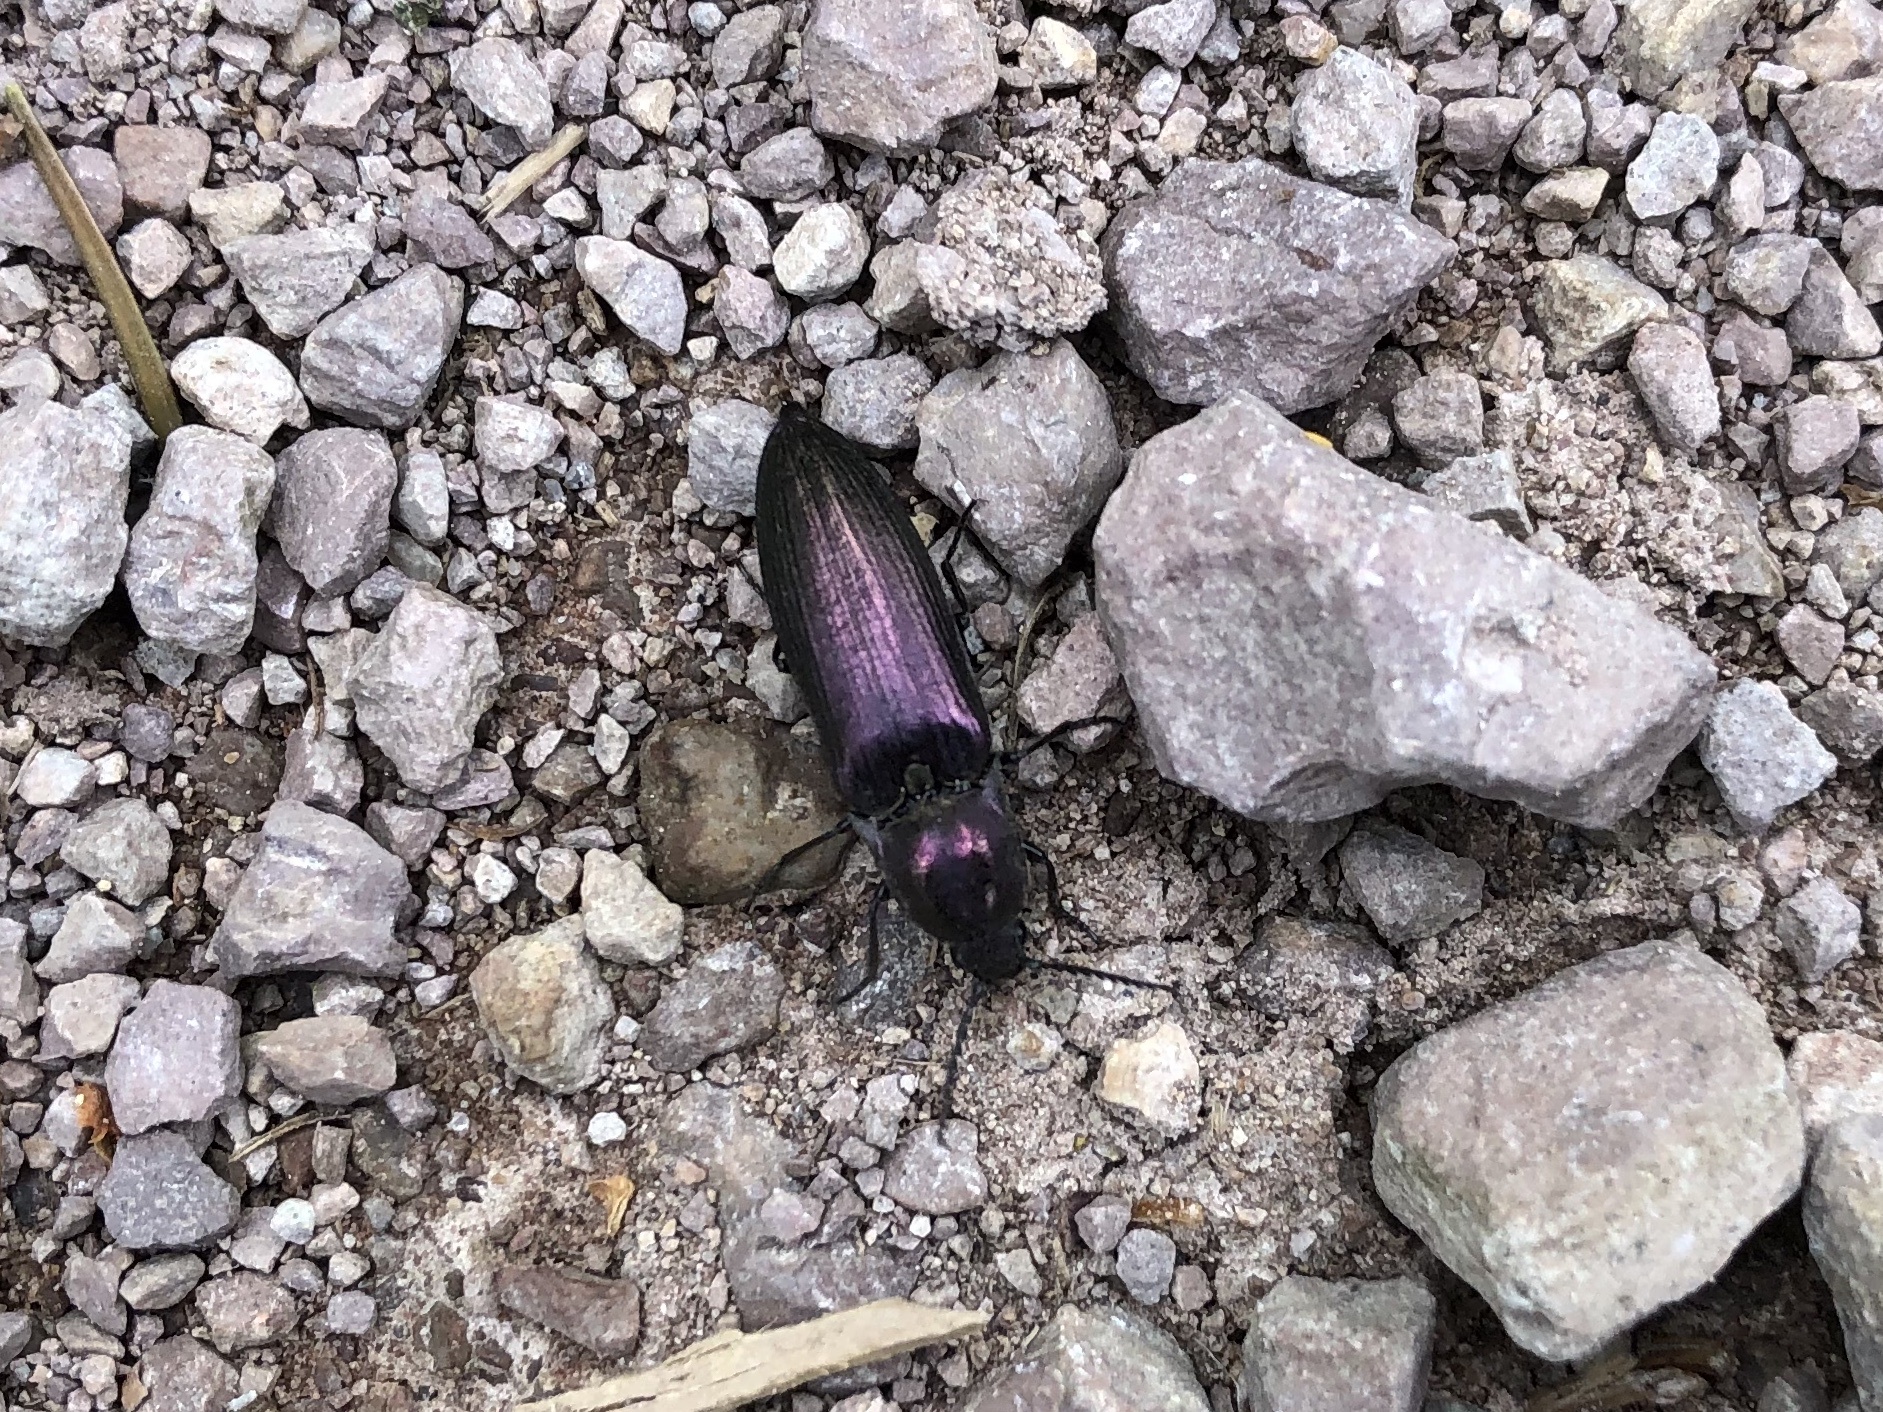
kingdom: Animalia
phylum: Arthropoda
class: Insecta
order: Coleoptera
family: Elateridae
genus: Ctenicera
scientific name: Ctenicera cuprea
